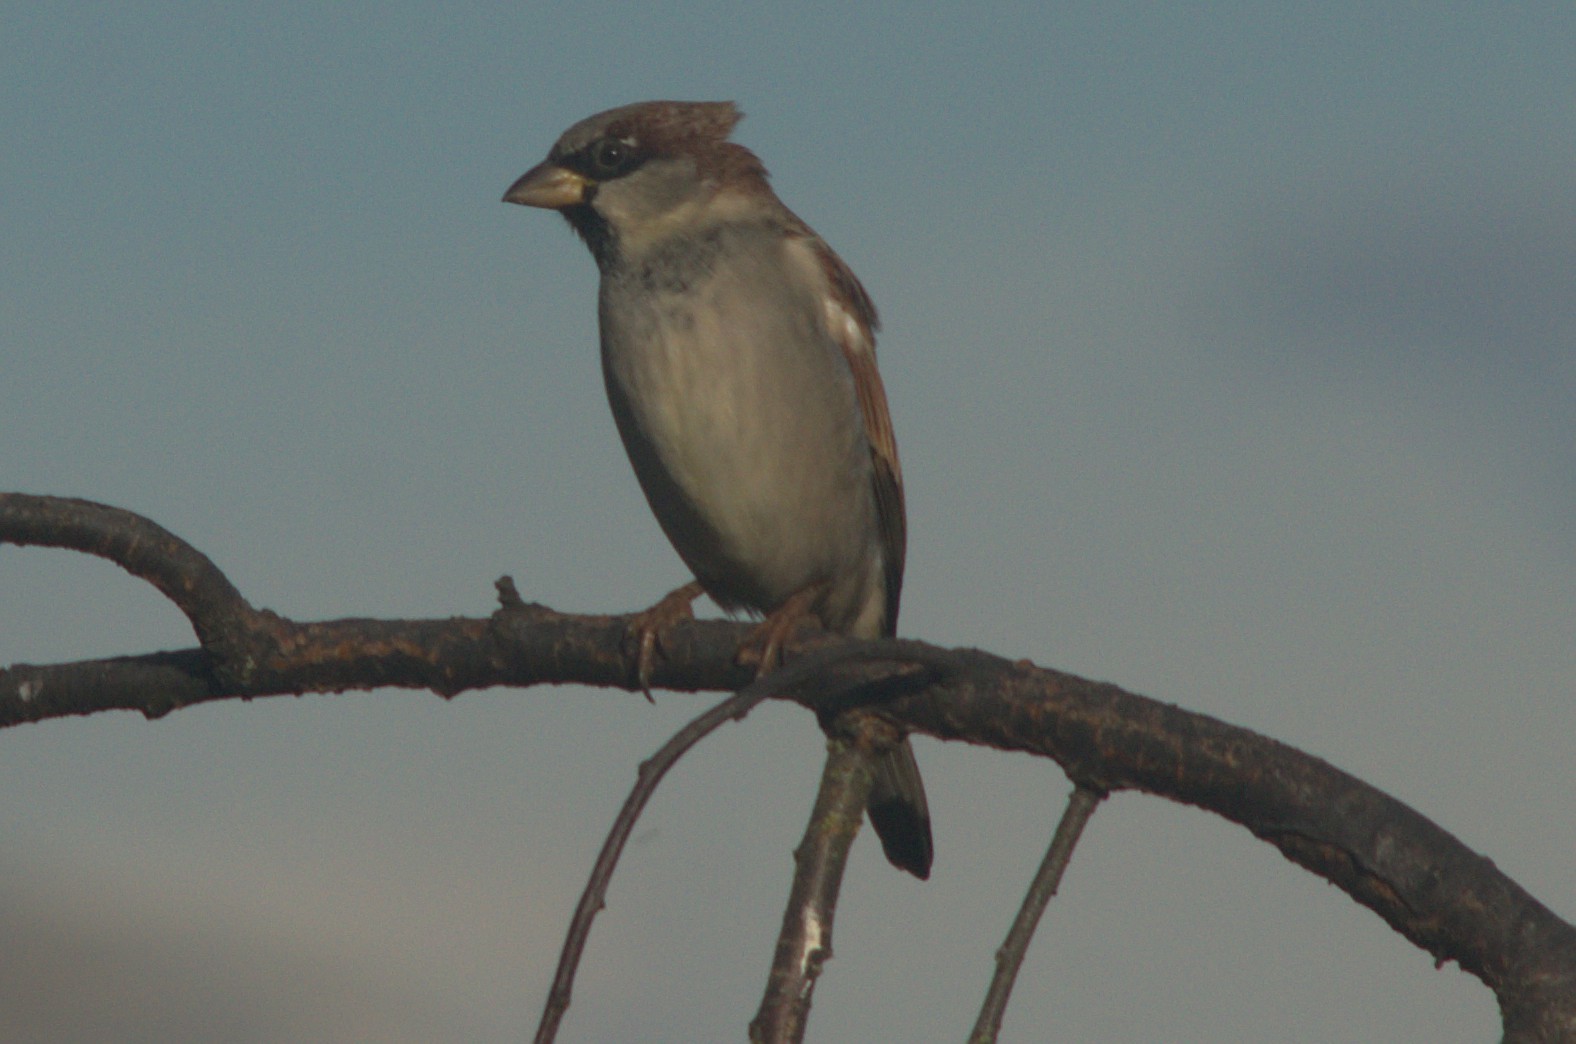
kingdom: Animalia
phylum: Chordata
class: Aves
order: Passeriformes
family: Passeridae
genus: Passer
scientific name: Passer domesticus
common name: House sparrow
